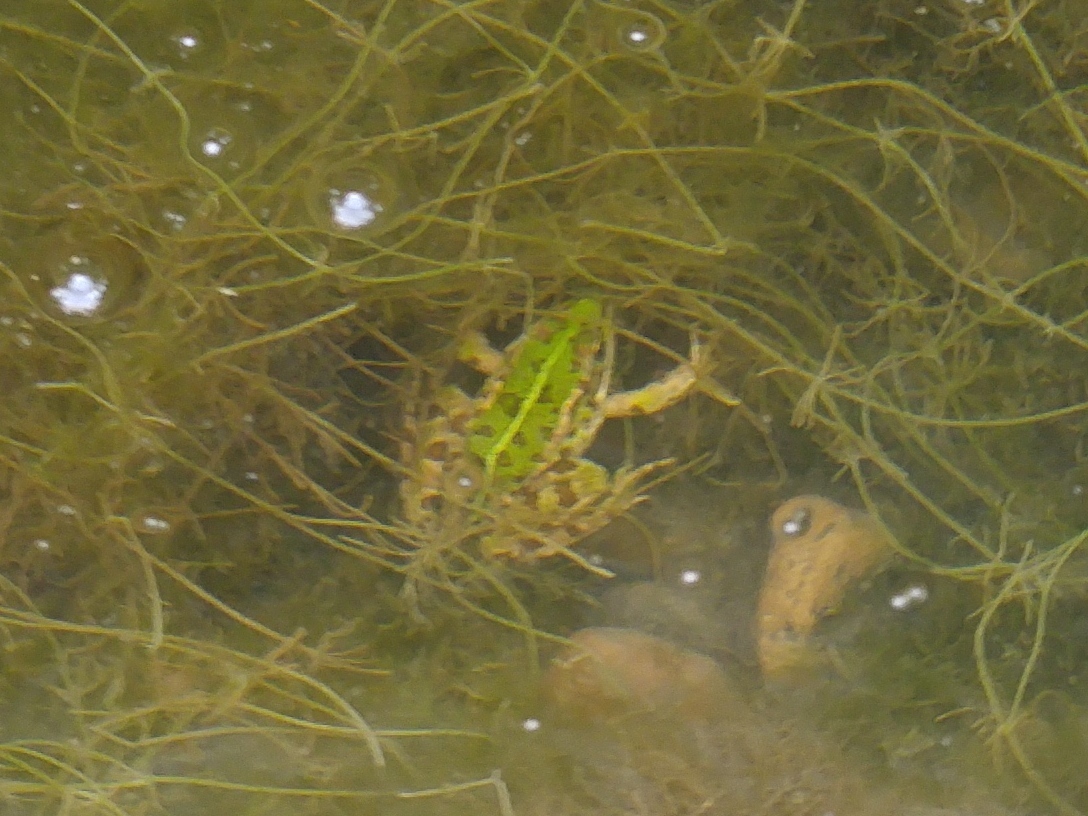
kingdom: Animalia
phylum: Chordata
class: Amphibia
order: Anura
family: Ranidae
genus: Pelophylax
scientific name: Pelophylax saharicus
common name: Sahara frog
